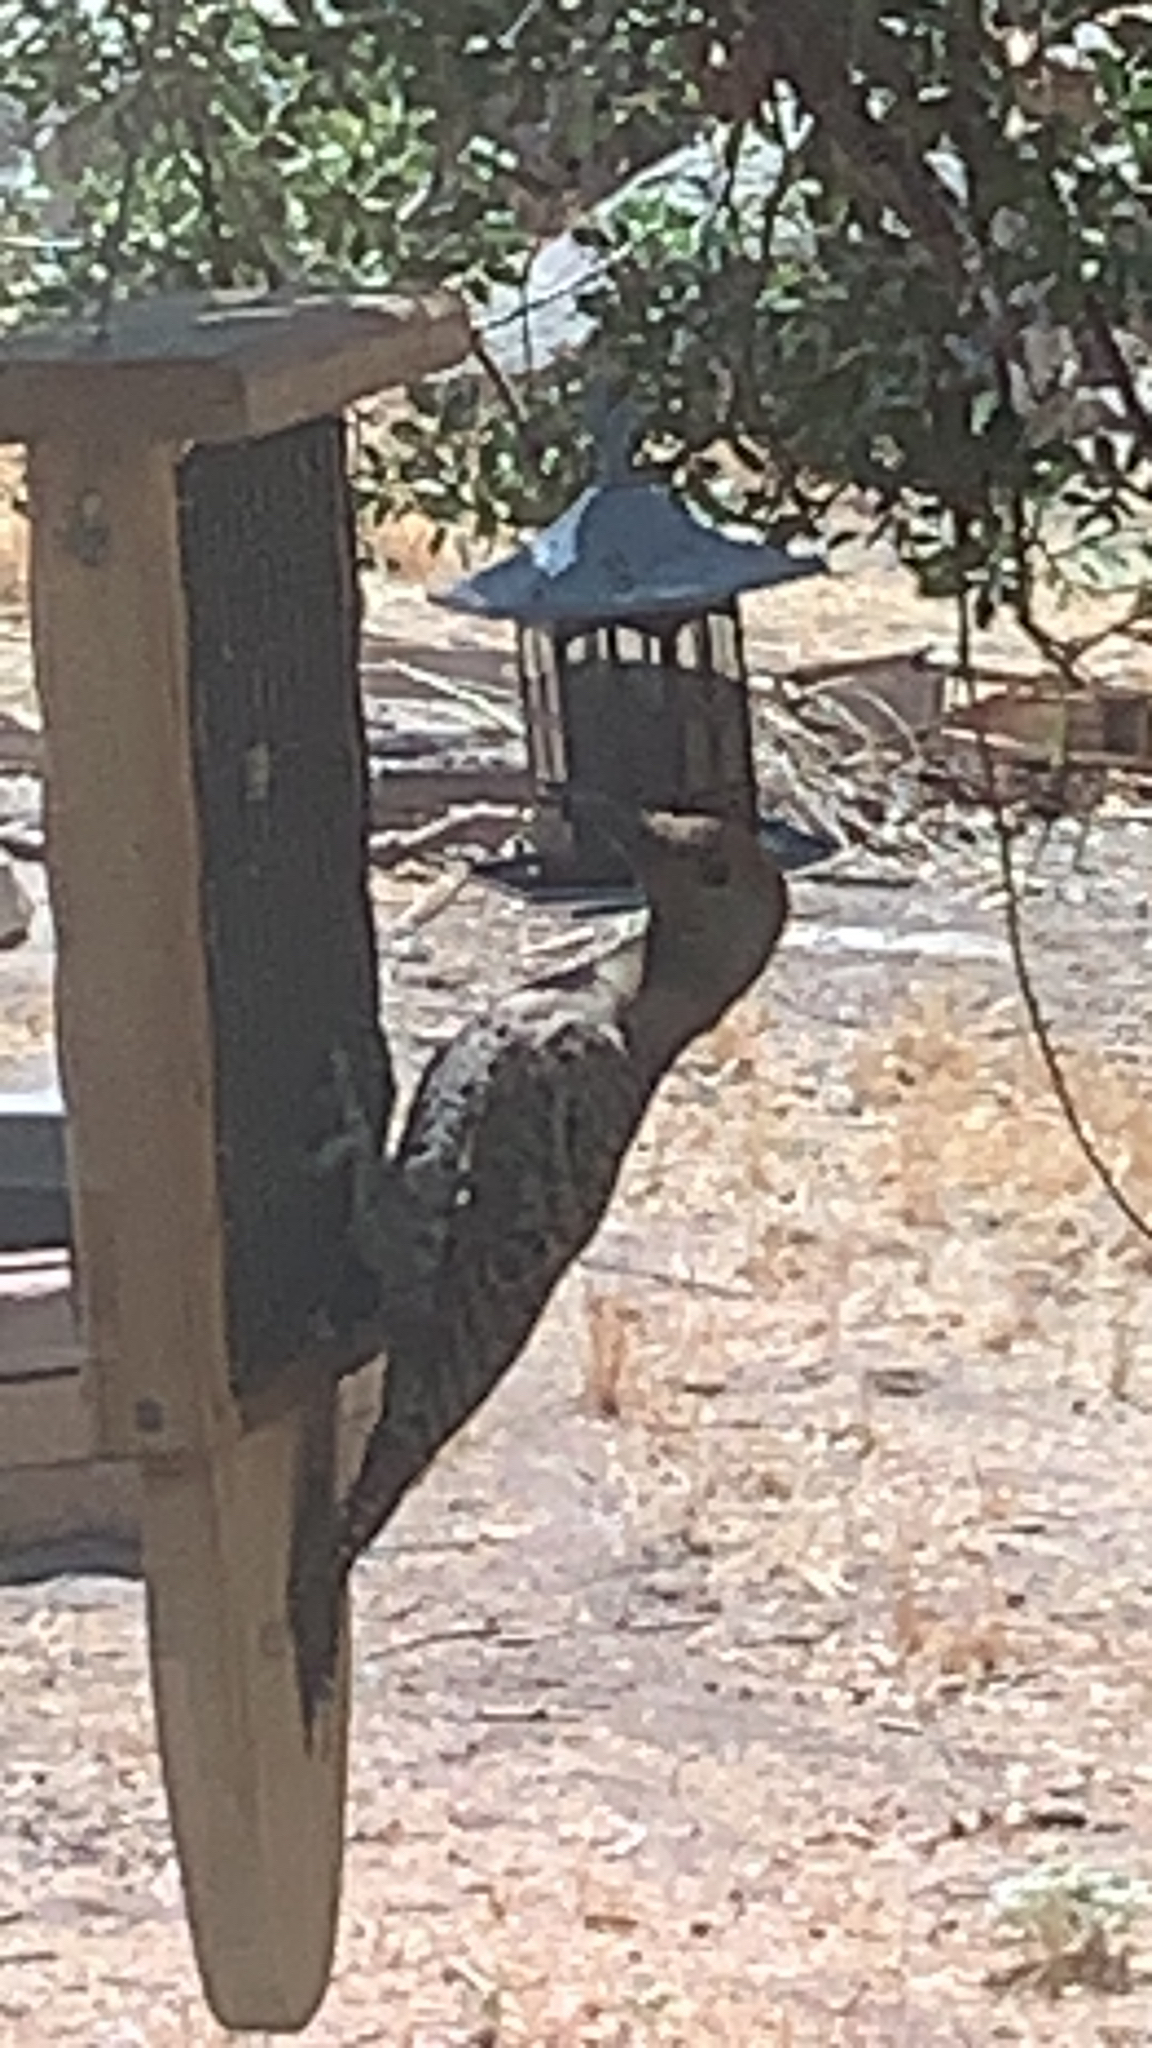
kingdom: Animalia
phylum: Chordata
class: Aves
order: Piciformes
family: Picidae
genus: Colaptes
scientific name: Colaptes auratus
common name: Northern flicker
